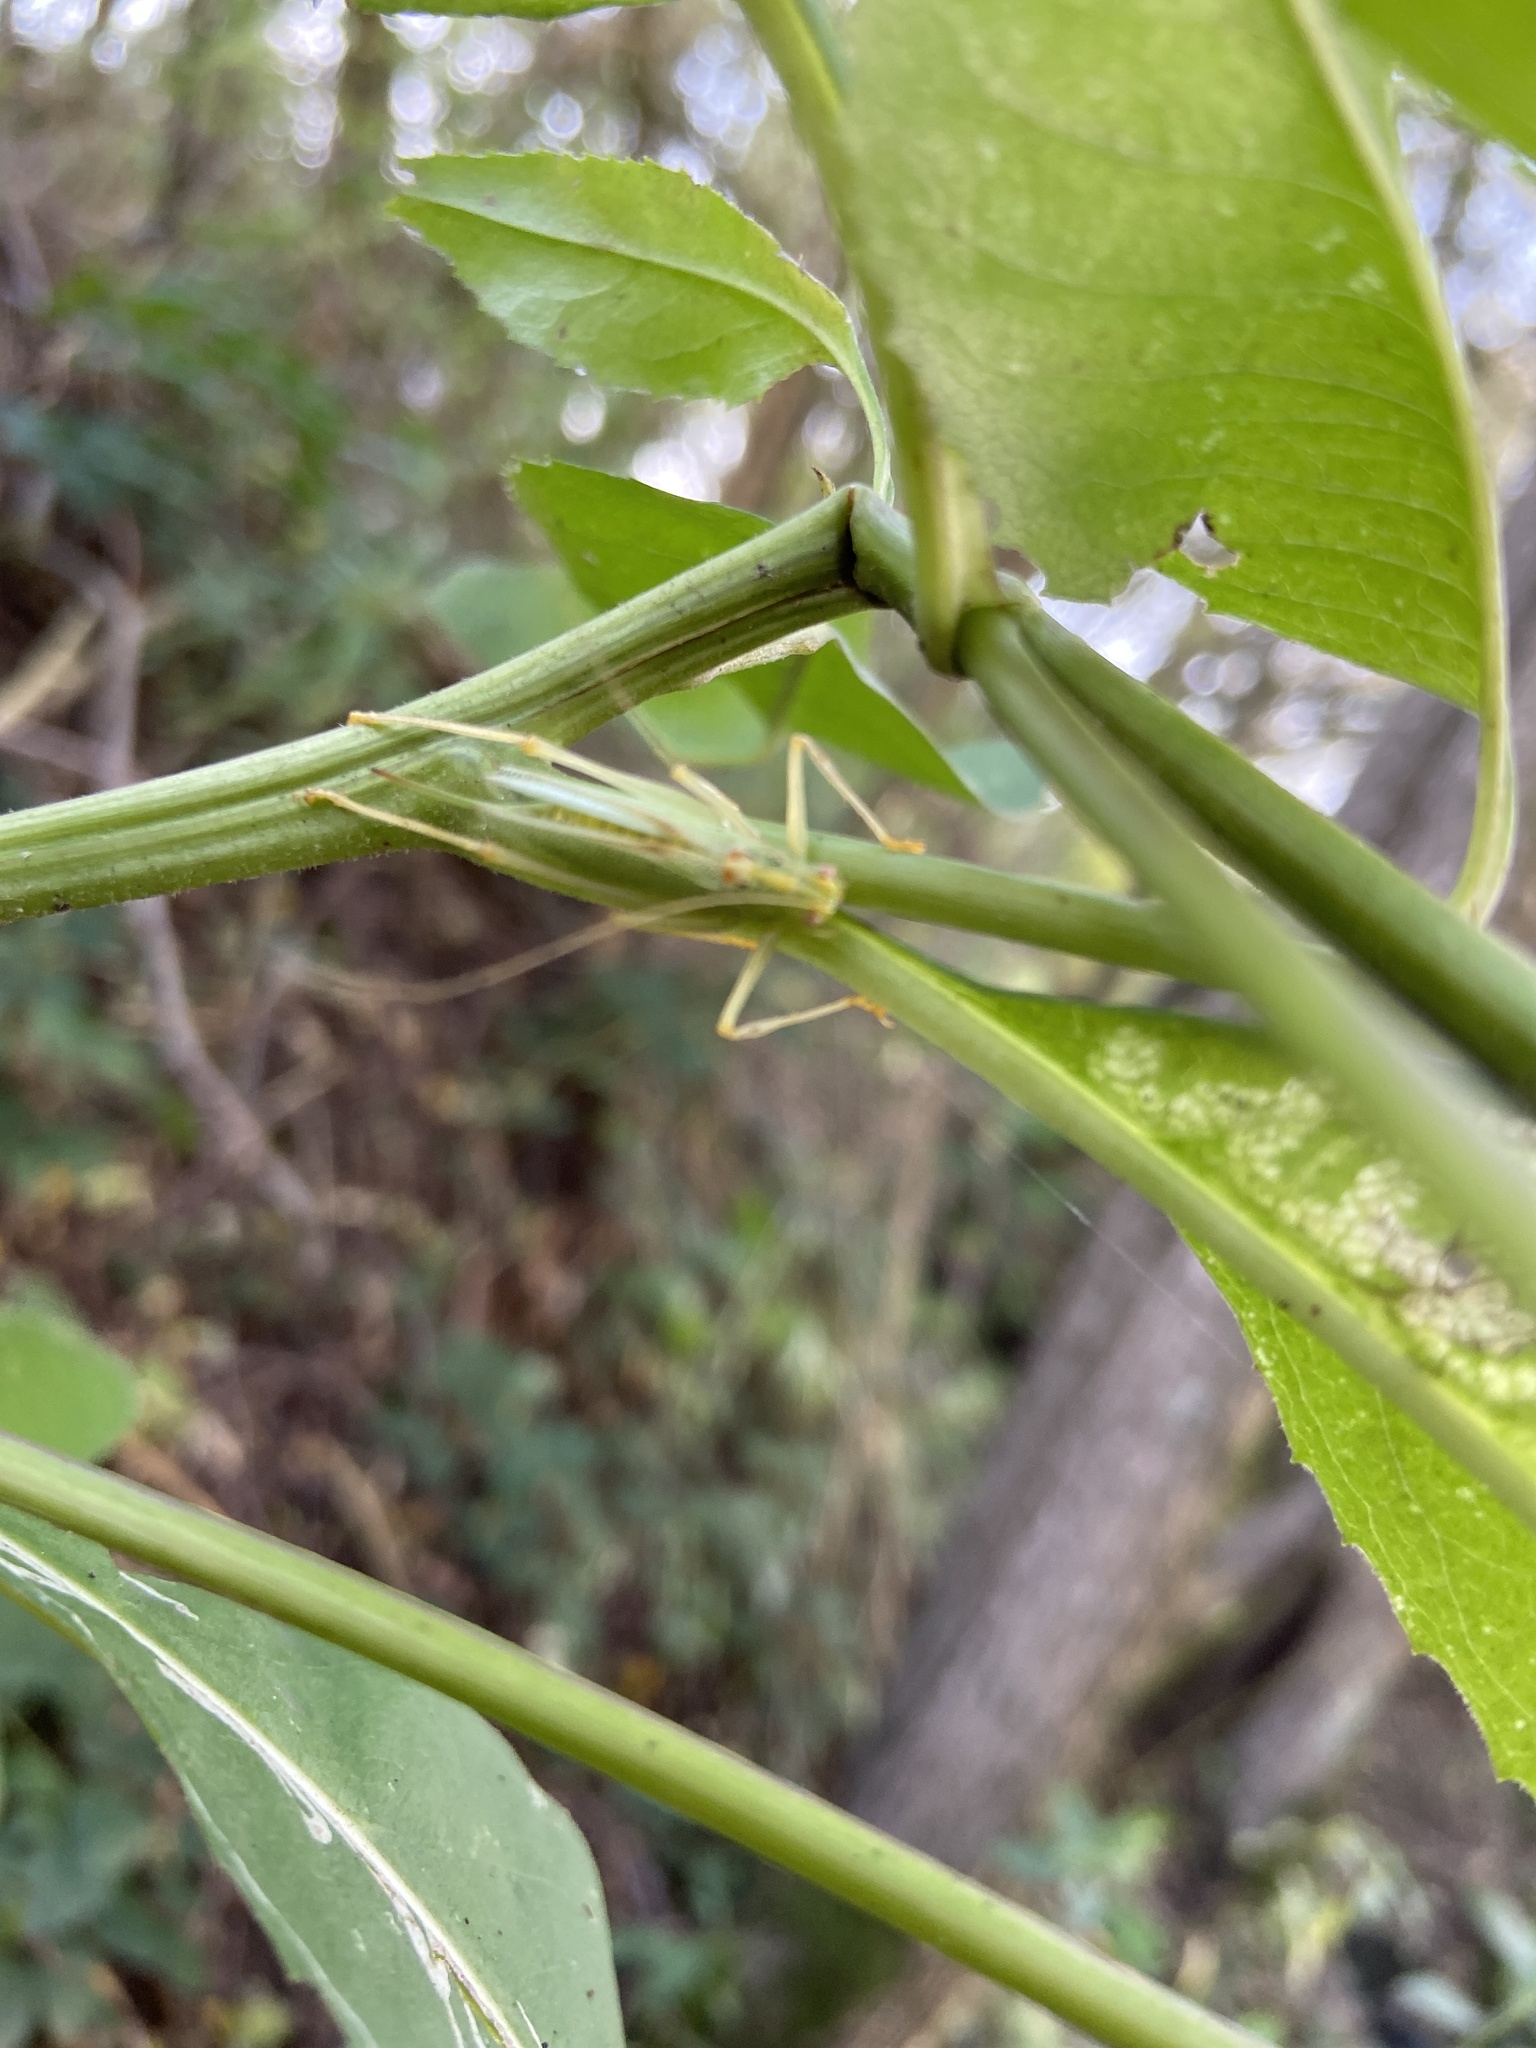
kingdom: Animalia
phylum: Arthropoda
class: Insecta
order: Orthoptera
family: Tettigoniidae
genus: Meconema
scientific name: Meconema thalassinum
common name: Oak bush-cricket
